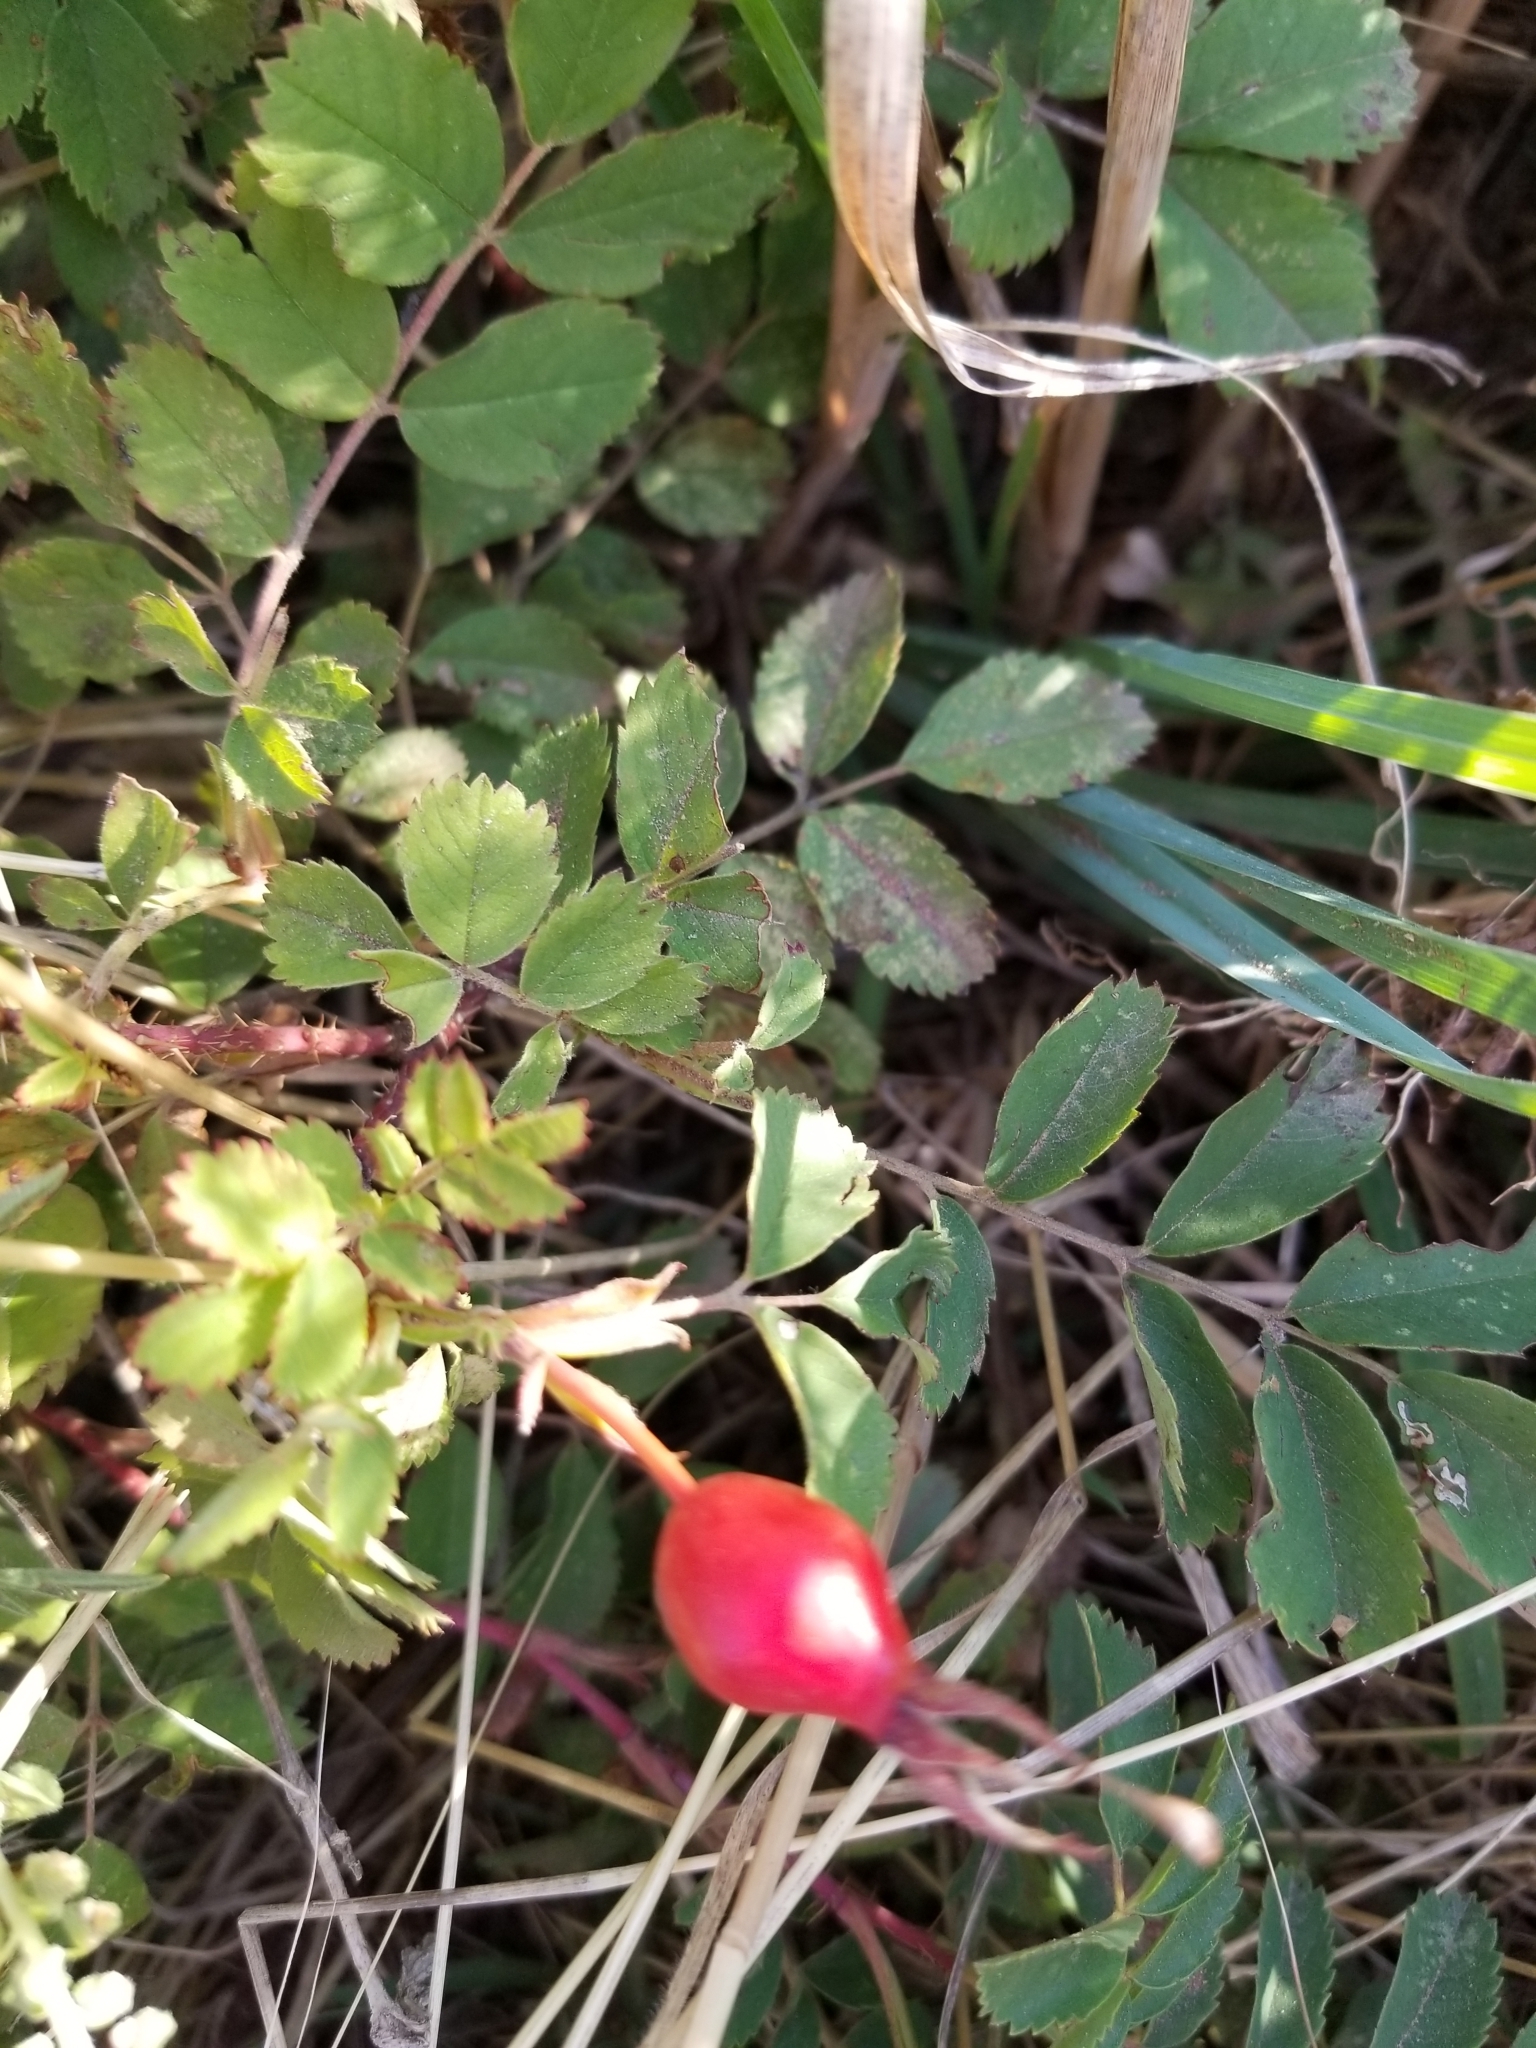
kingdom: Plantae
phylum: Tracheophyta
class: Magnoliopsida
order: Rosales
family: Rosaceae
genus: Rosa
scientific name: Rosa woodsii
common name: Woods's rose
